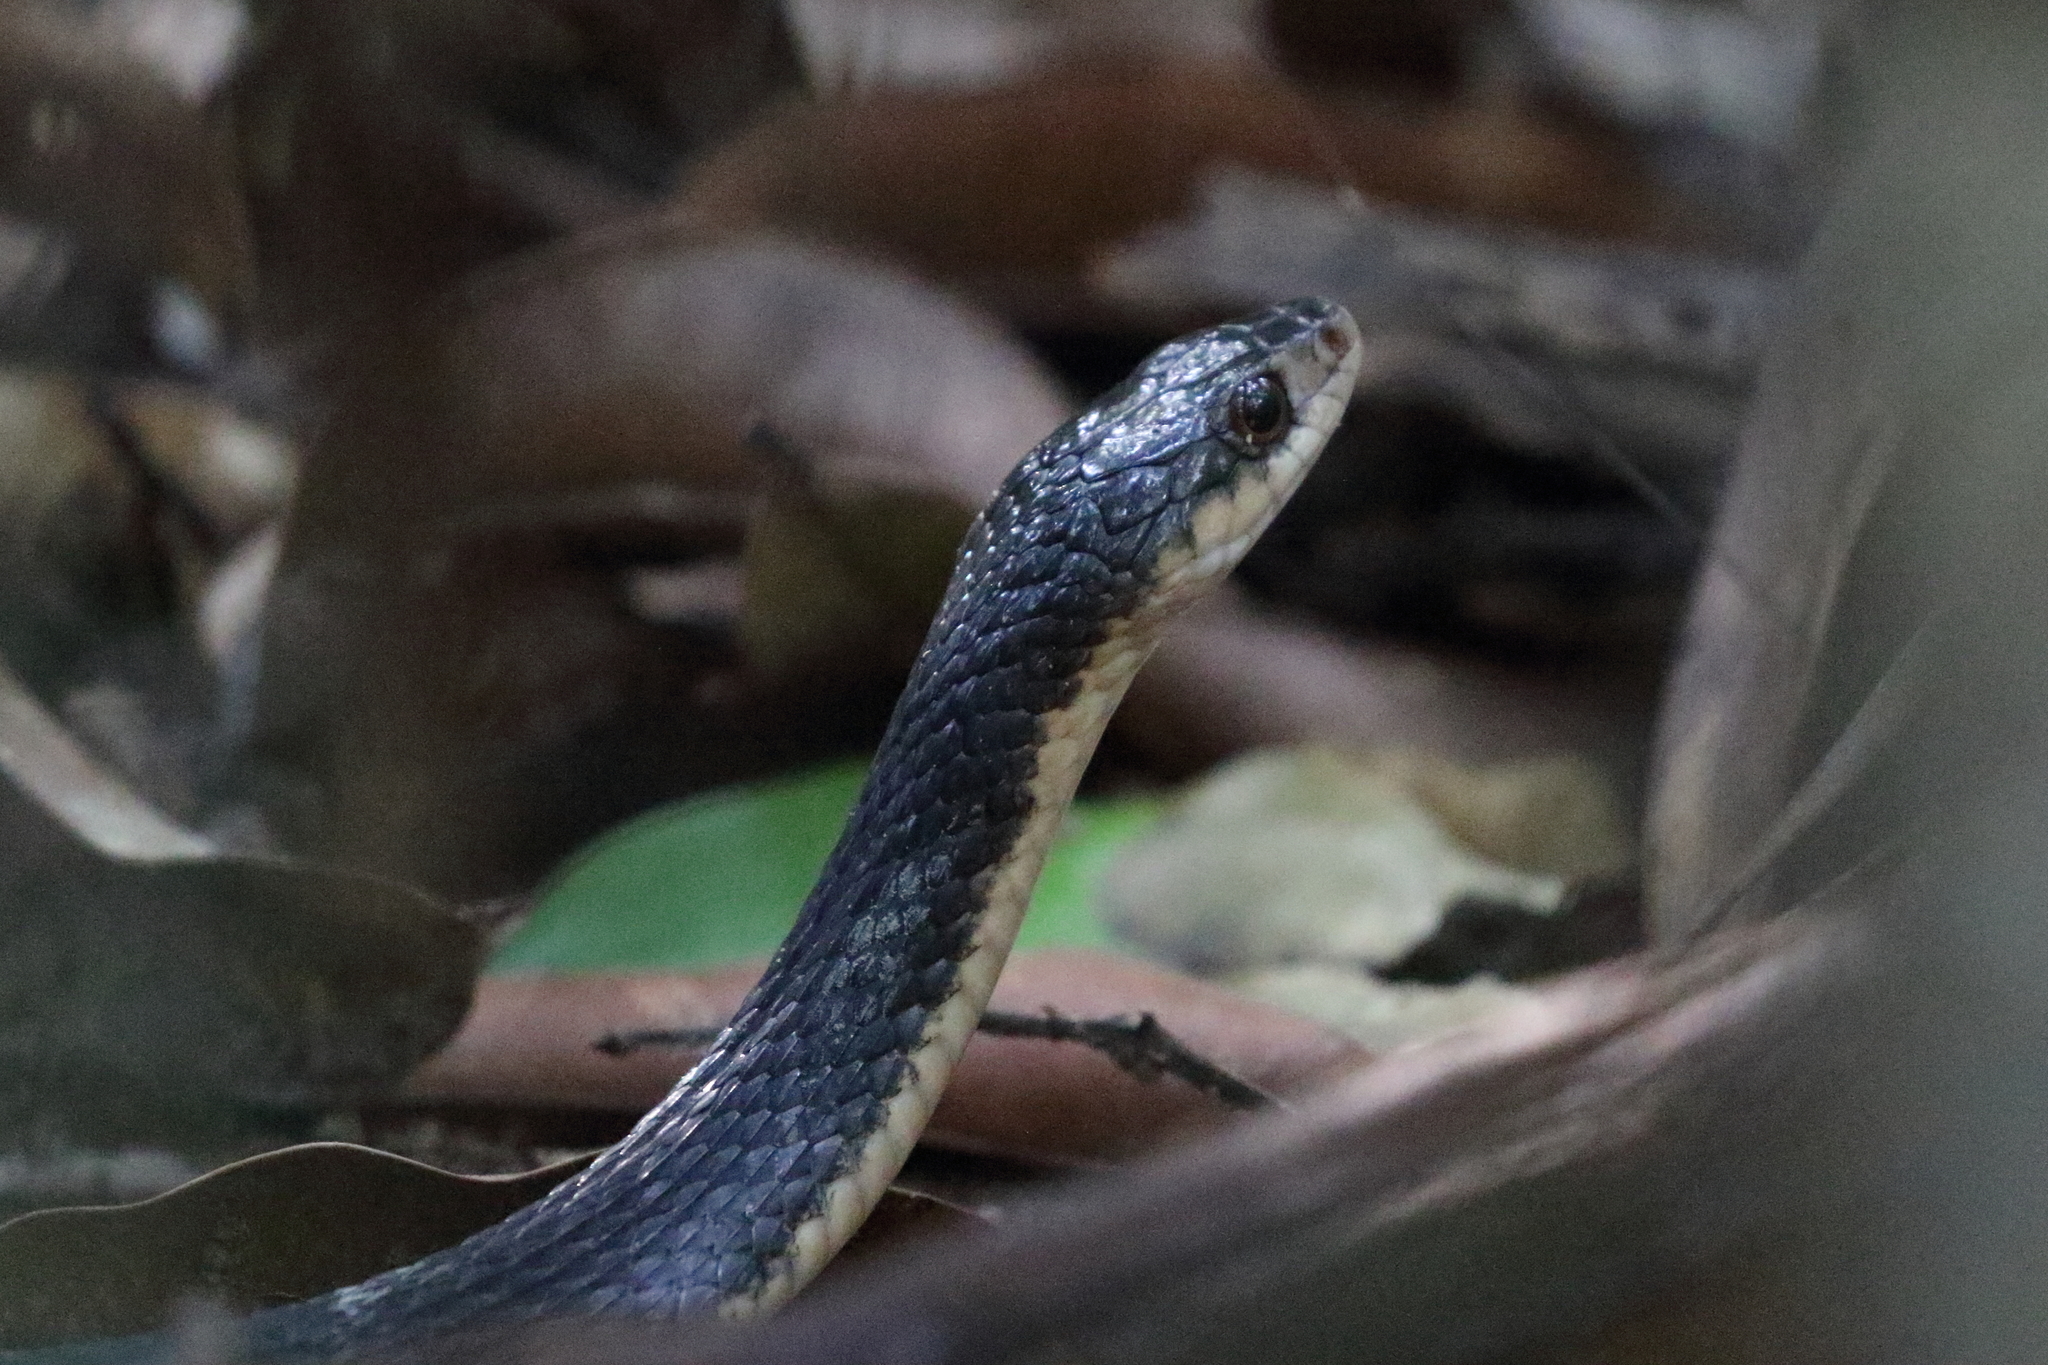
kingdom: Animalia
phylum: Chordata
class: Squamata
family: Colubridae
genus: Tropidonophis
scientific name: Tropidonophis mairii
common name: Common keelback
